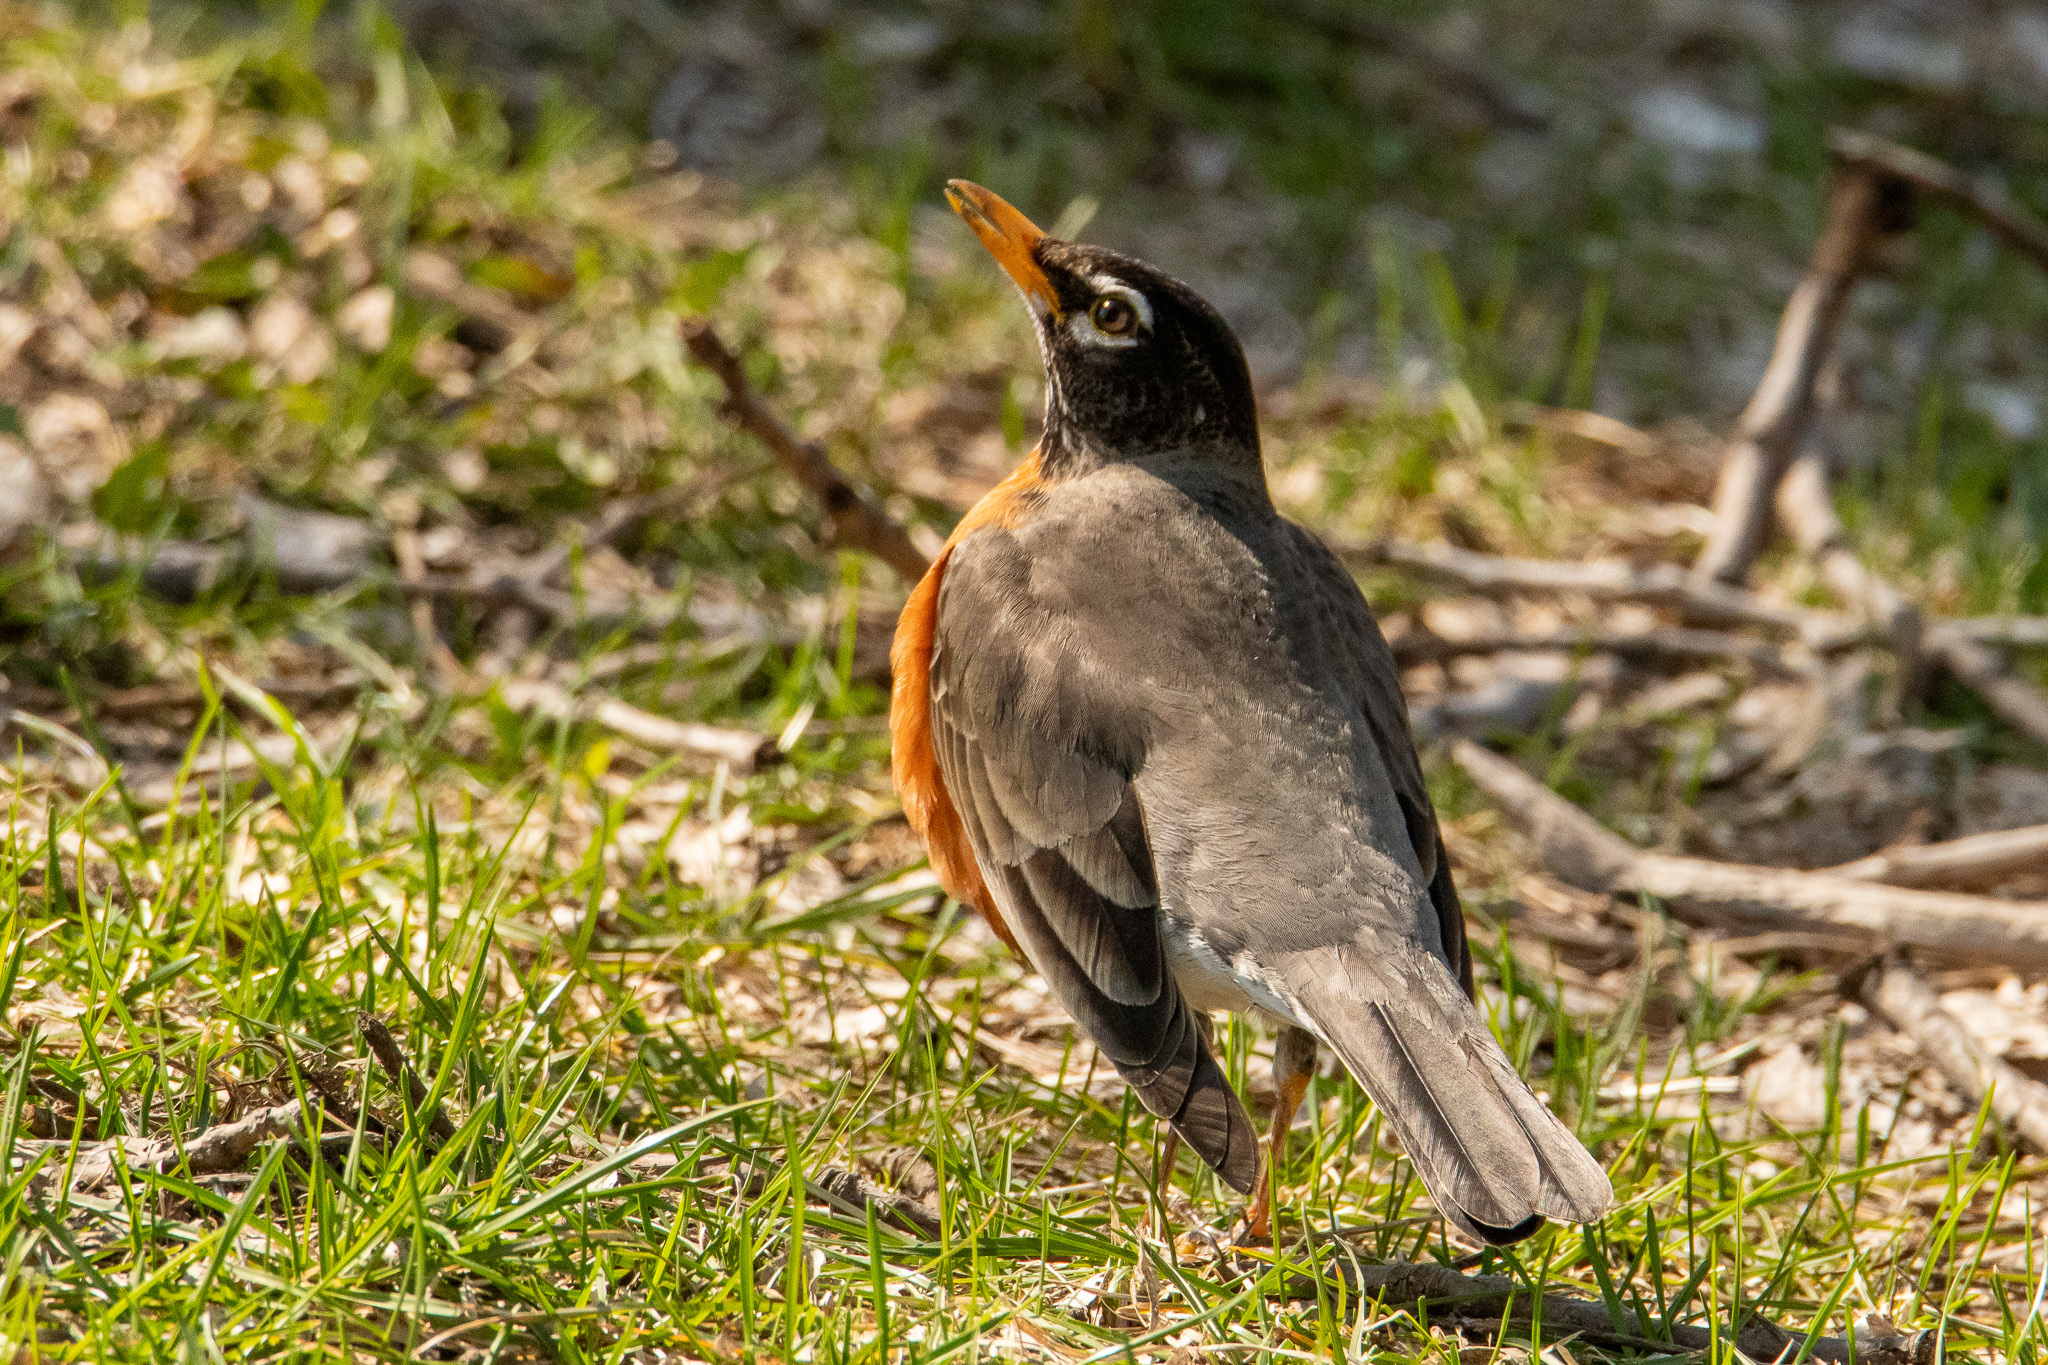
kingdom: Animalia
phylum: Chordata
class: Aves
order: Passeriformes
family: Turdidae
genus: Turdus
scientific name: Turdus migratorius
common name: American robin
